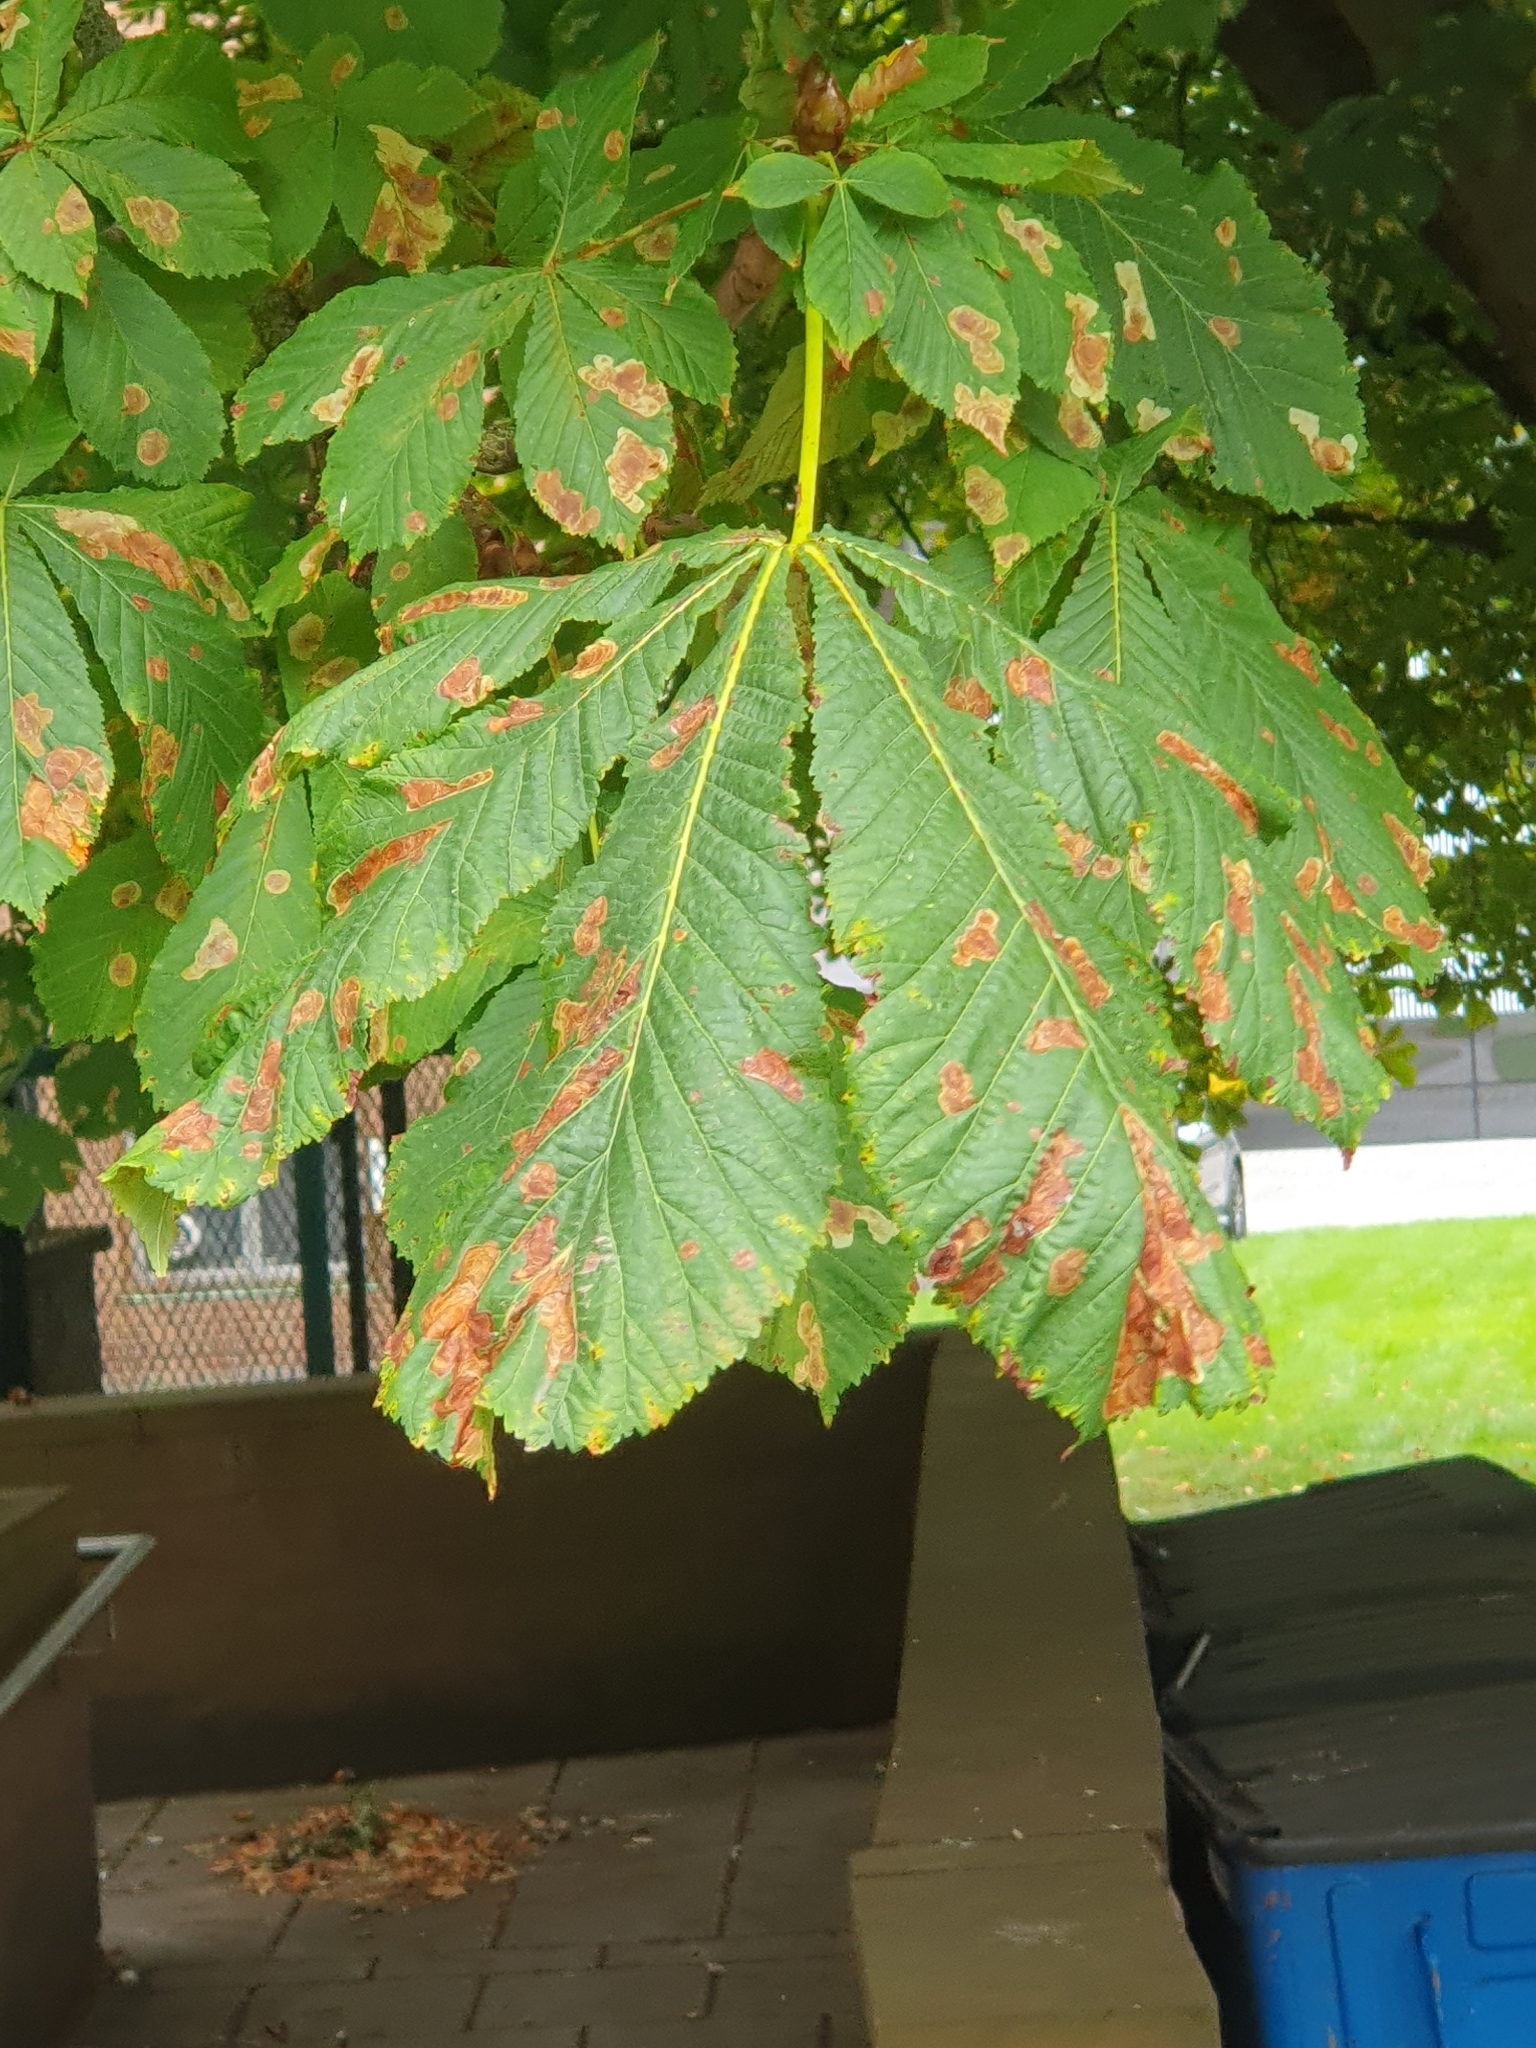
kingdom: Animalia
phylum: Arthropoda
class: Insecta
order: Lepidoptera
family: Gracillariidae
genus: Cameraria
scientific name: Cameraria ohridella
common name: Horse-chestnut leaf-miner
